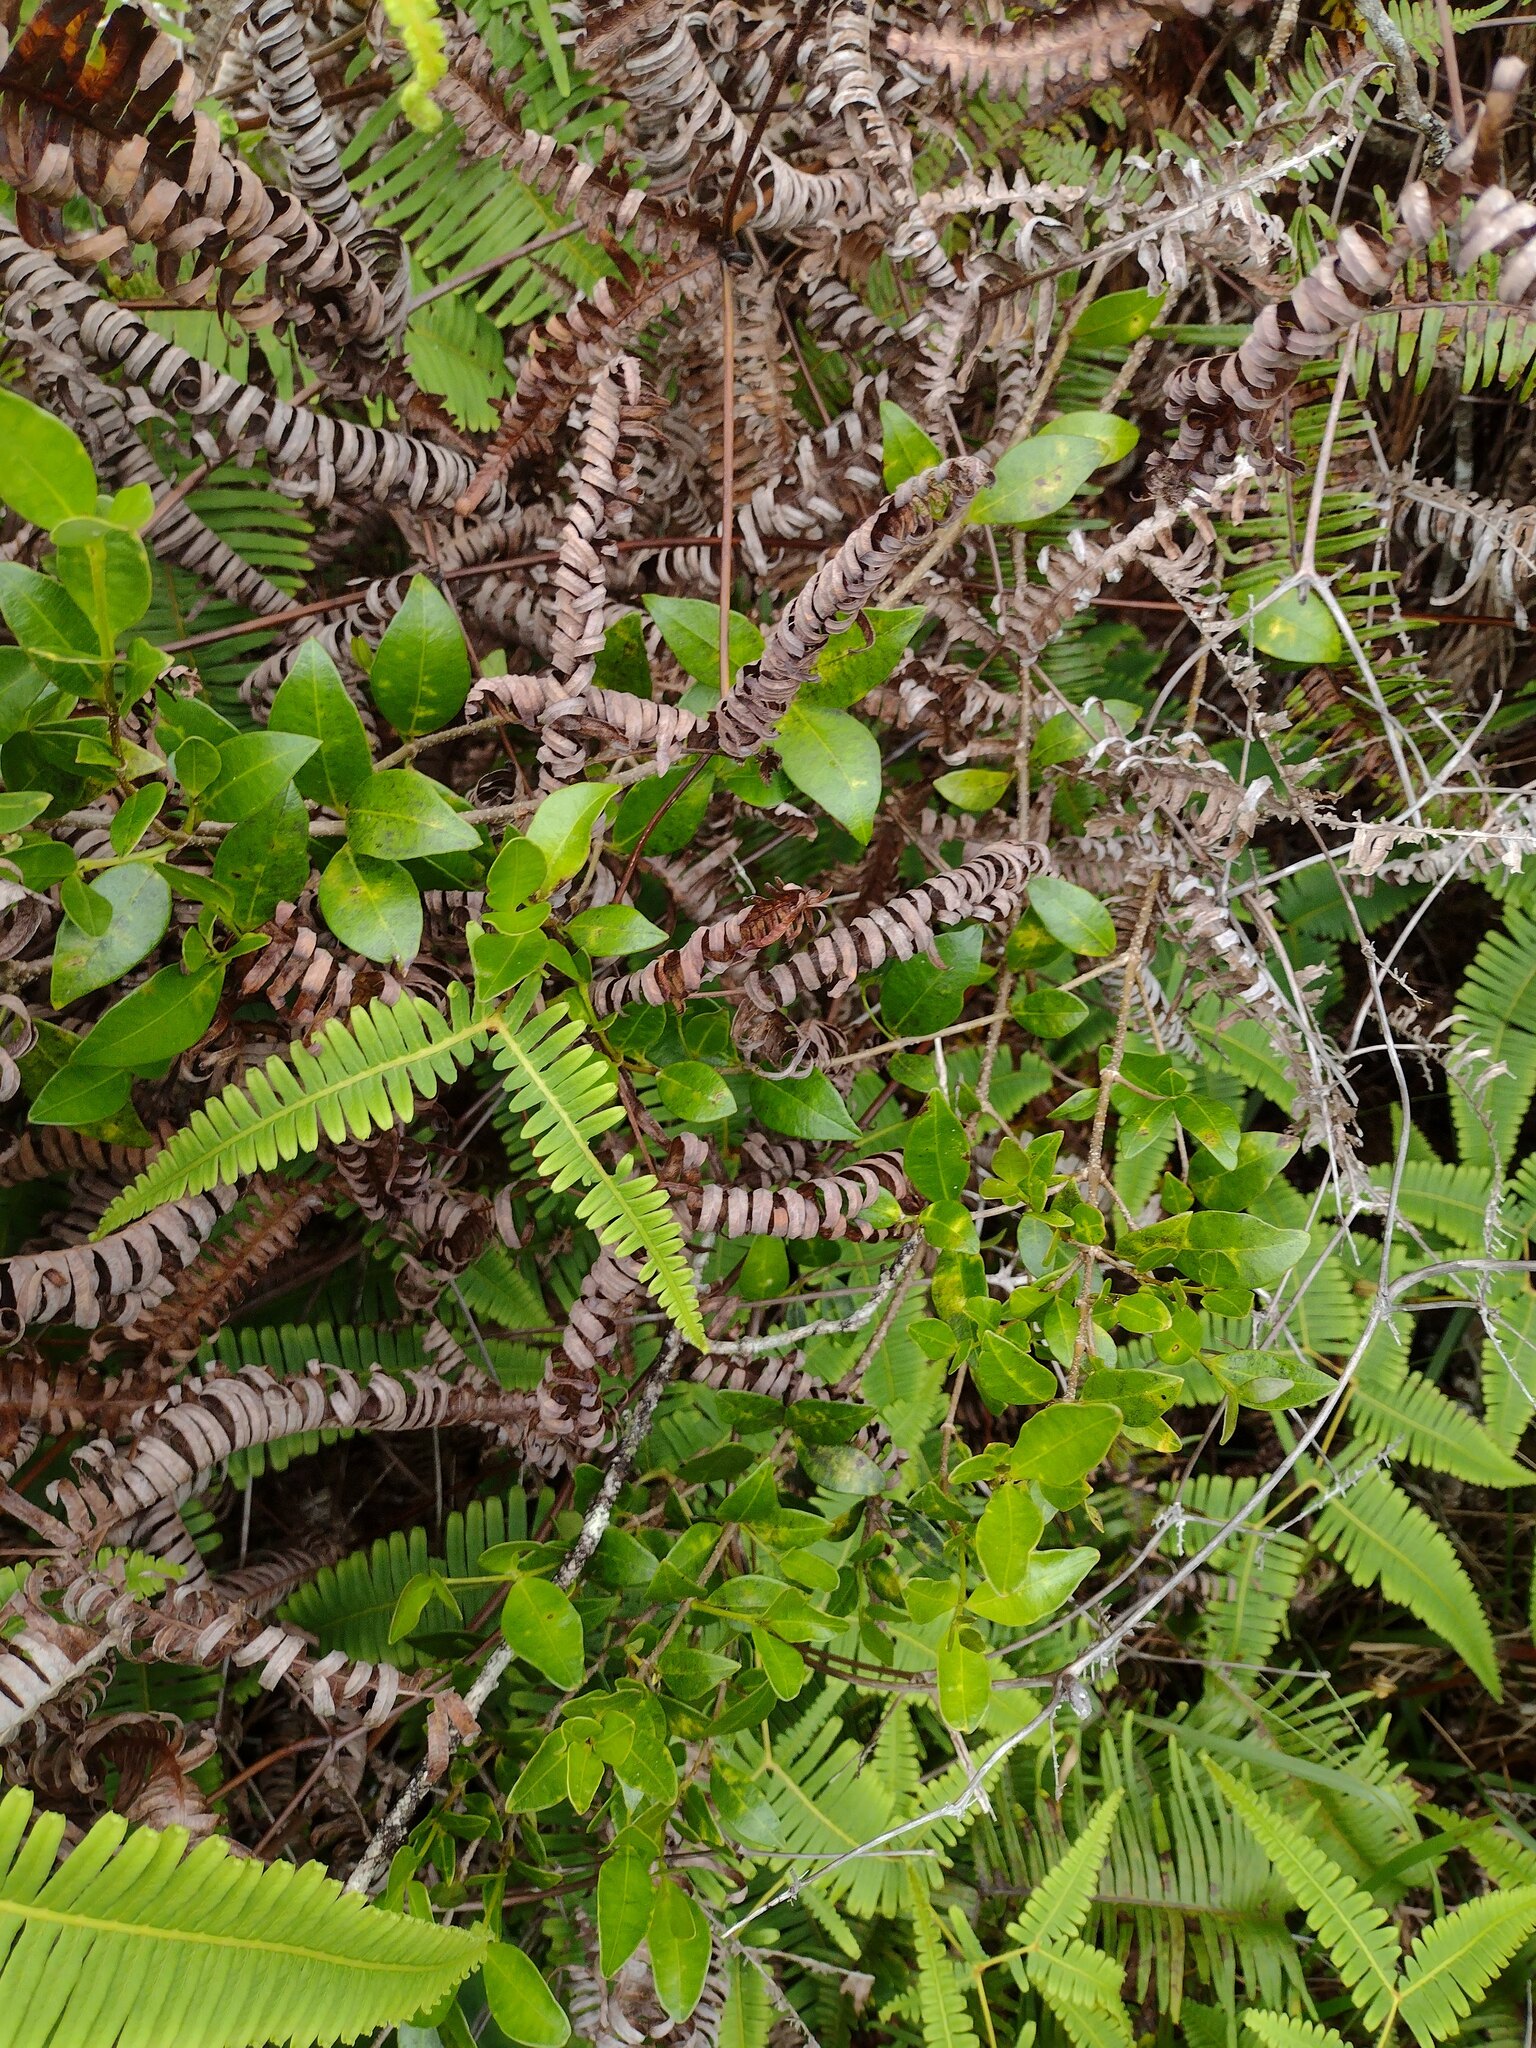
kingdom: Plantae
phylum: Tracheophyta
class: Magnoliopsida
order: Gentianales
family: Apocynaceae
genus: Alyxia
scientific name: Alyxia stellata
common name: Maile
